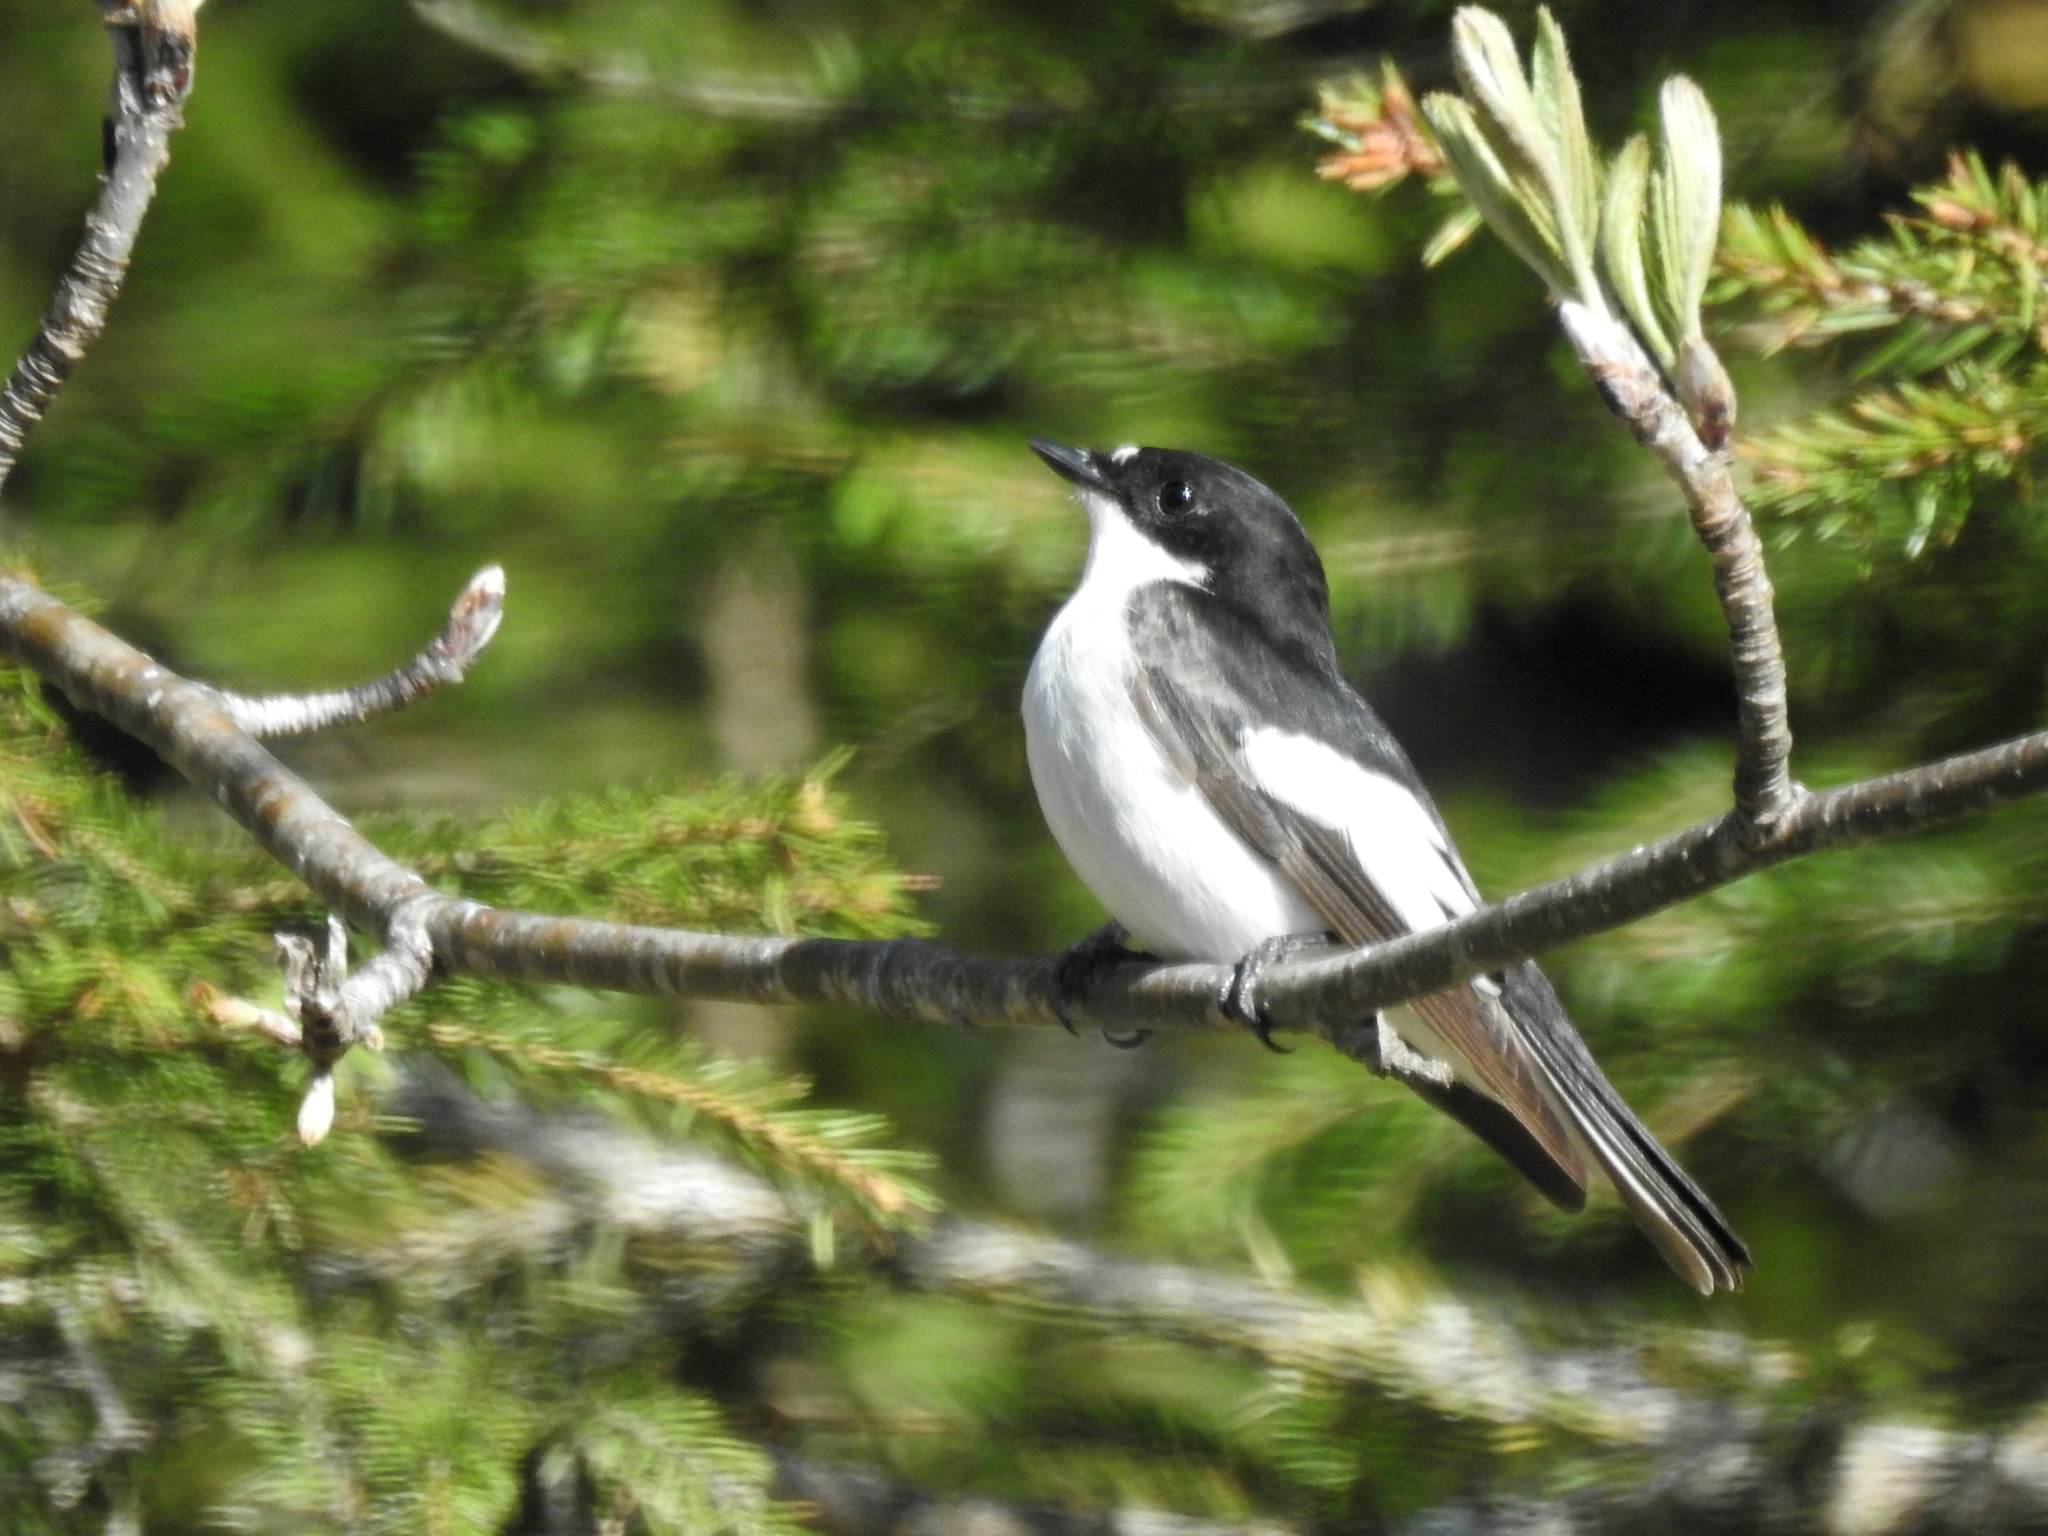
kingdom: Animalia
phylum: Chordata
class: Aves
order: Passeriformes
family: Muscicapidae
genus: Ficedula
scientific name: Ficedula hypoleuca
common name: European pied flycatcher
